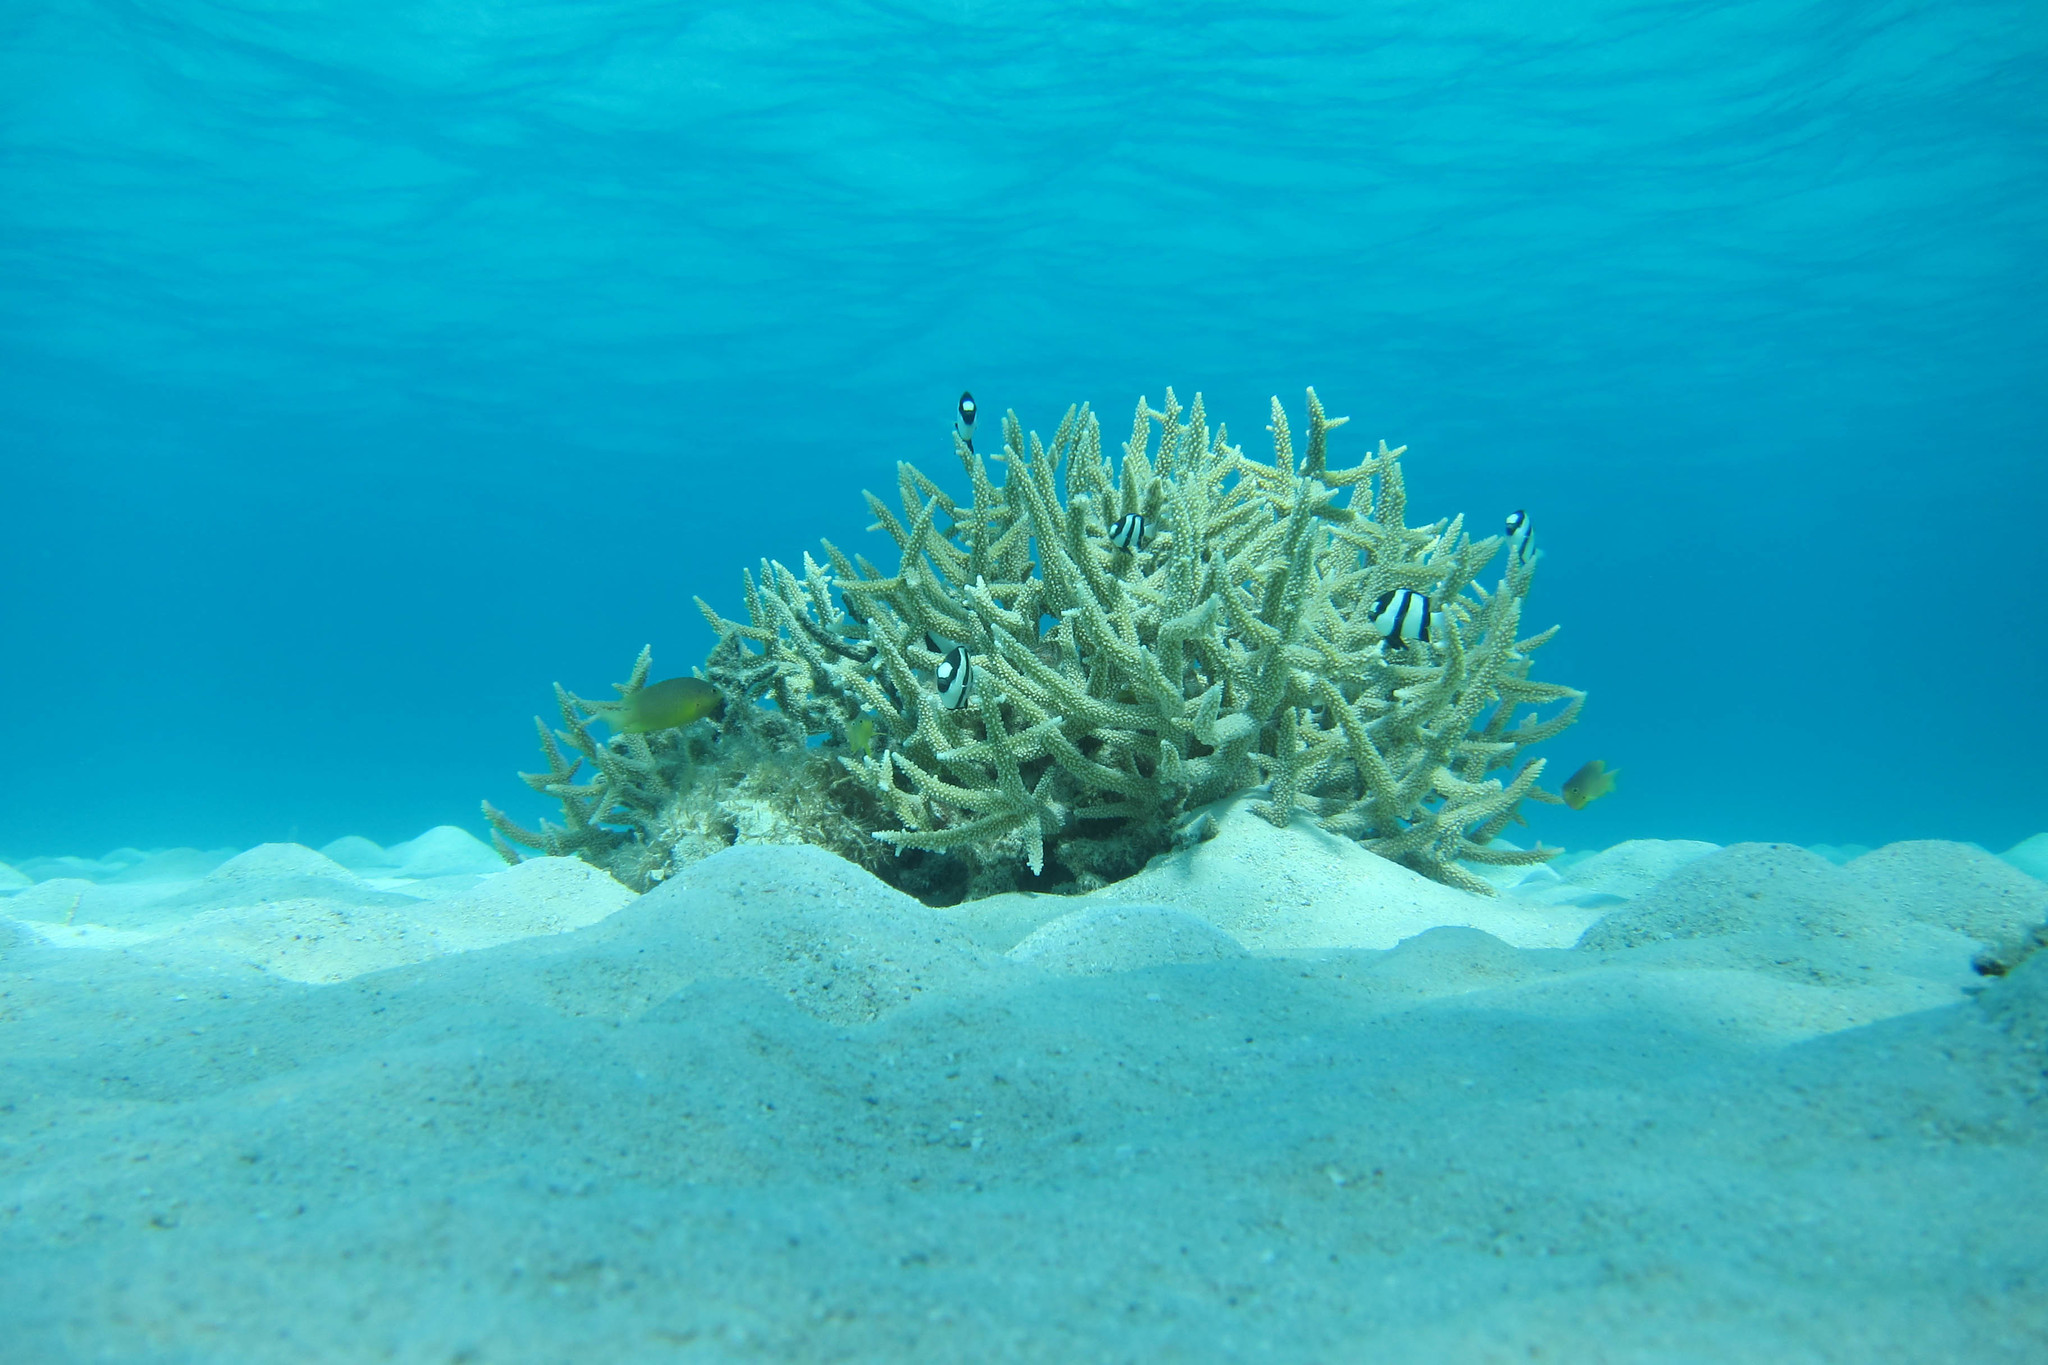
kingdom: Animalia
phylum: Chordata
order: Perciformes
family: Pomacentridae
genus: Dascyllus
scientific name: Dascyllus aruanus
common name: Humbug dascyllus
